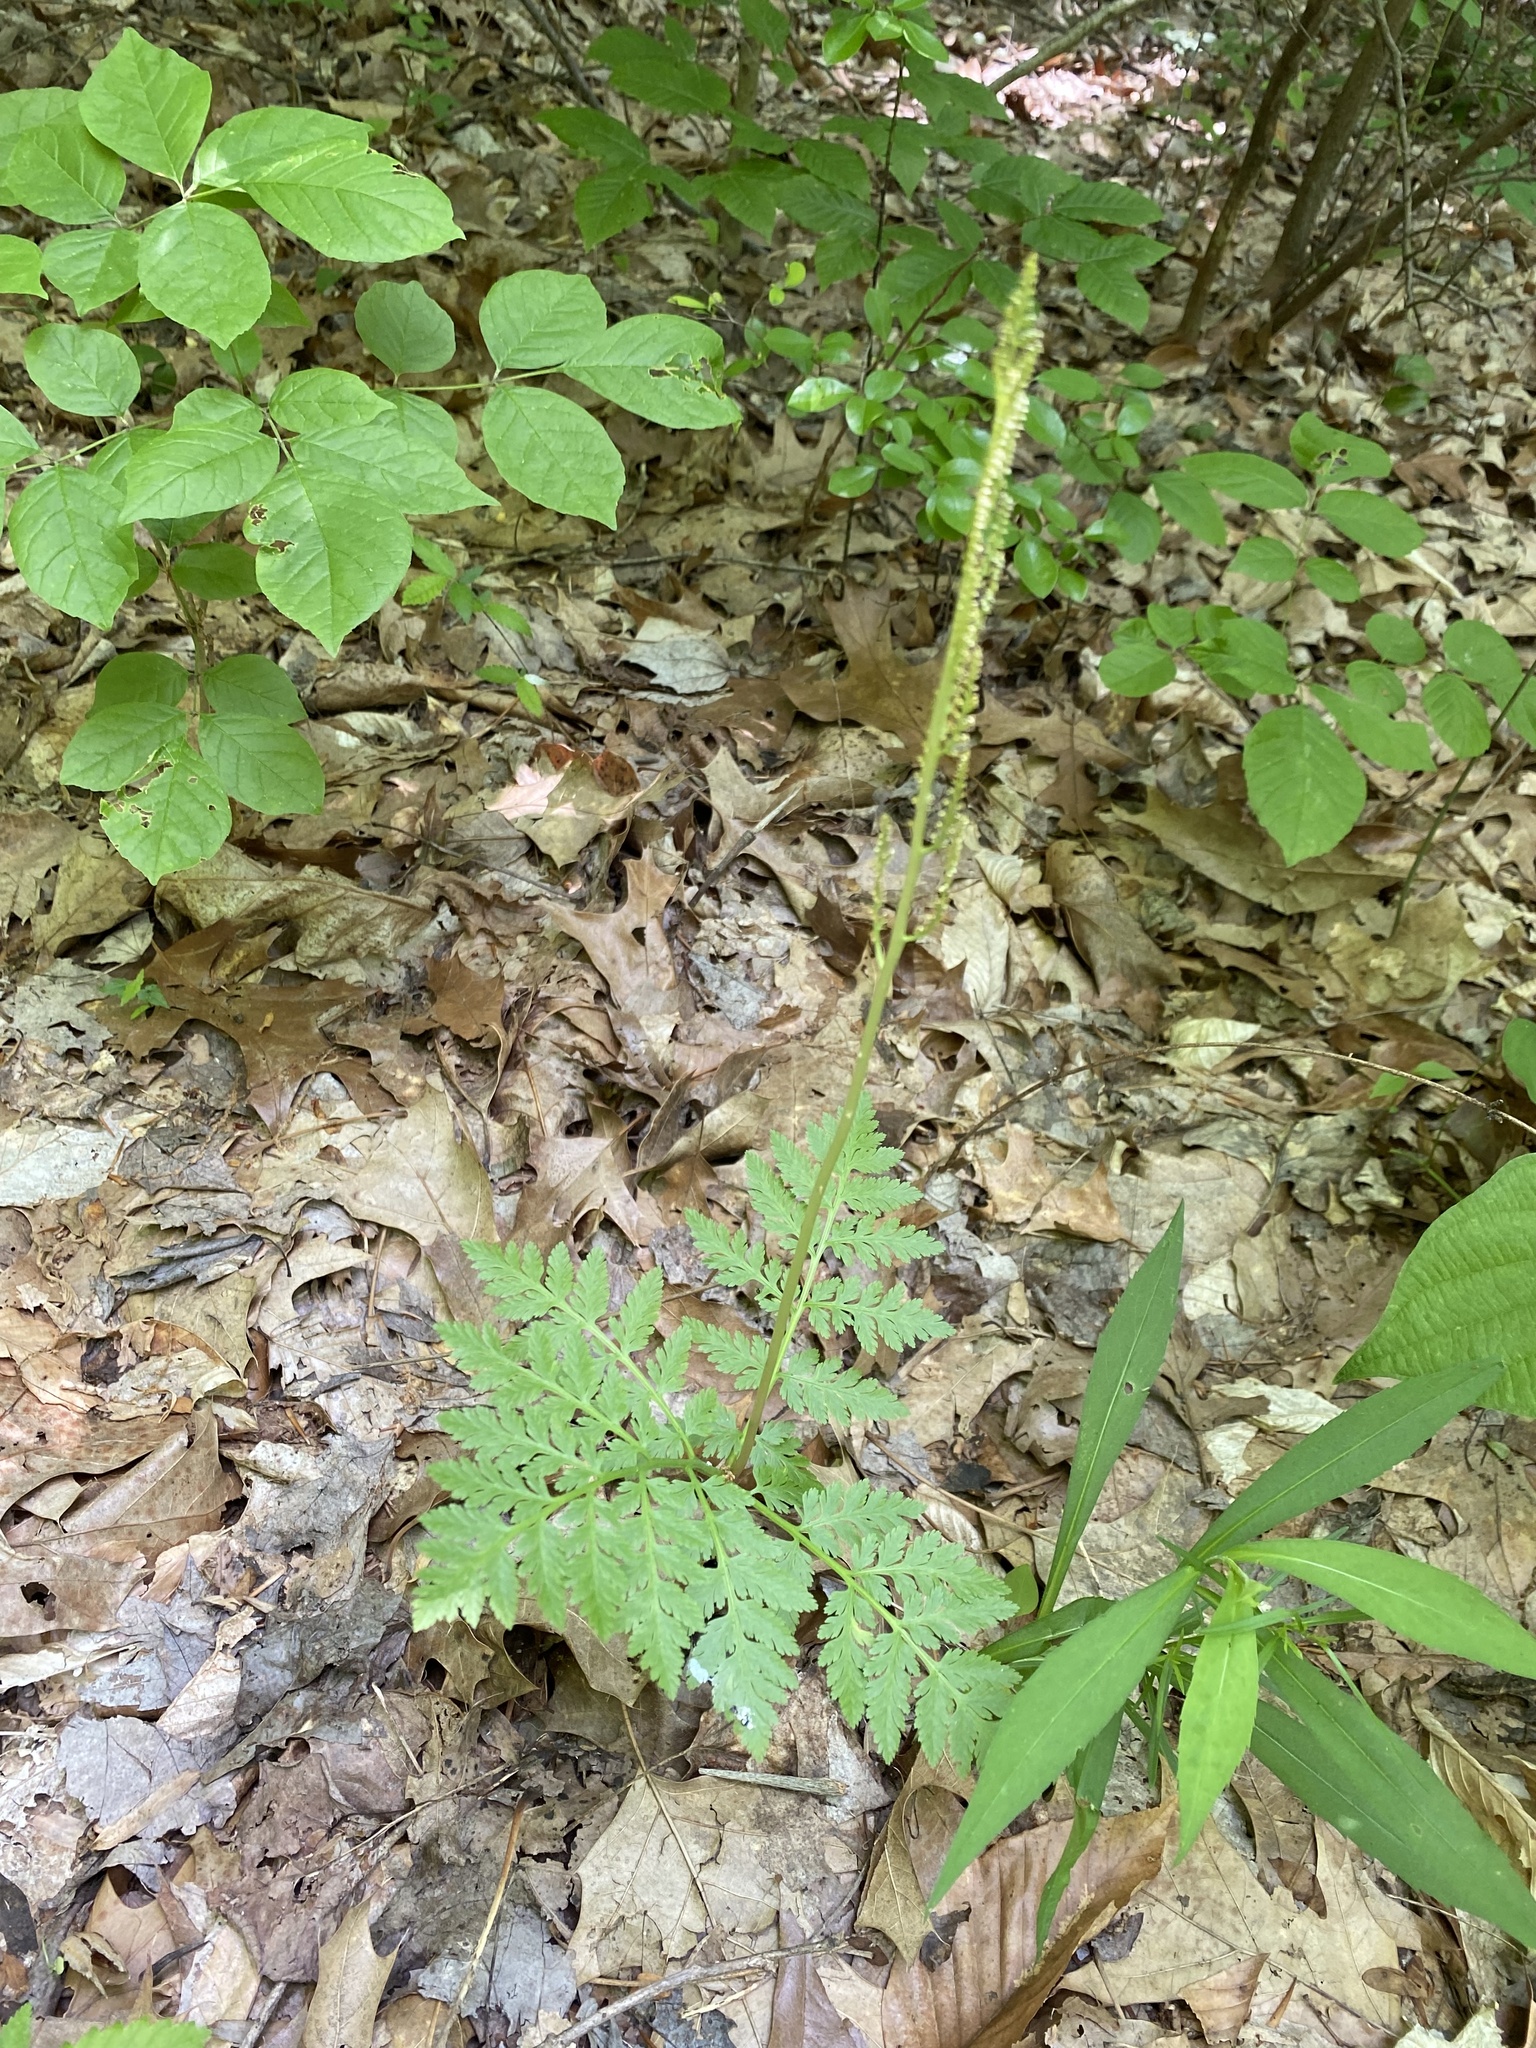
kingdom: Plantae
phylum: Tracheophyta
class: Polypodiopsida
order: Ophioglossales
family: Ophioglossaceae
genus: Botrypus
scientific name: Botrypus virginianus
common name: Common grapefern
